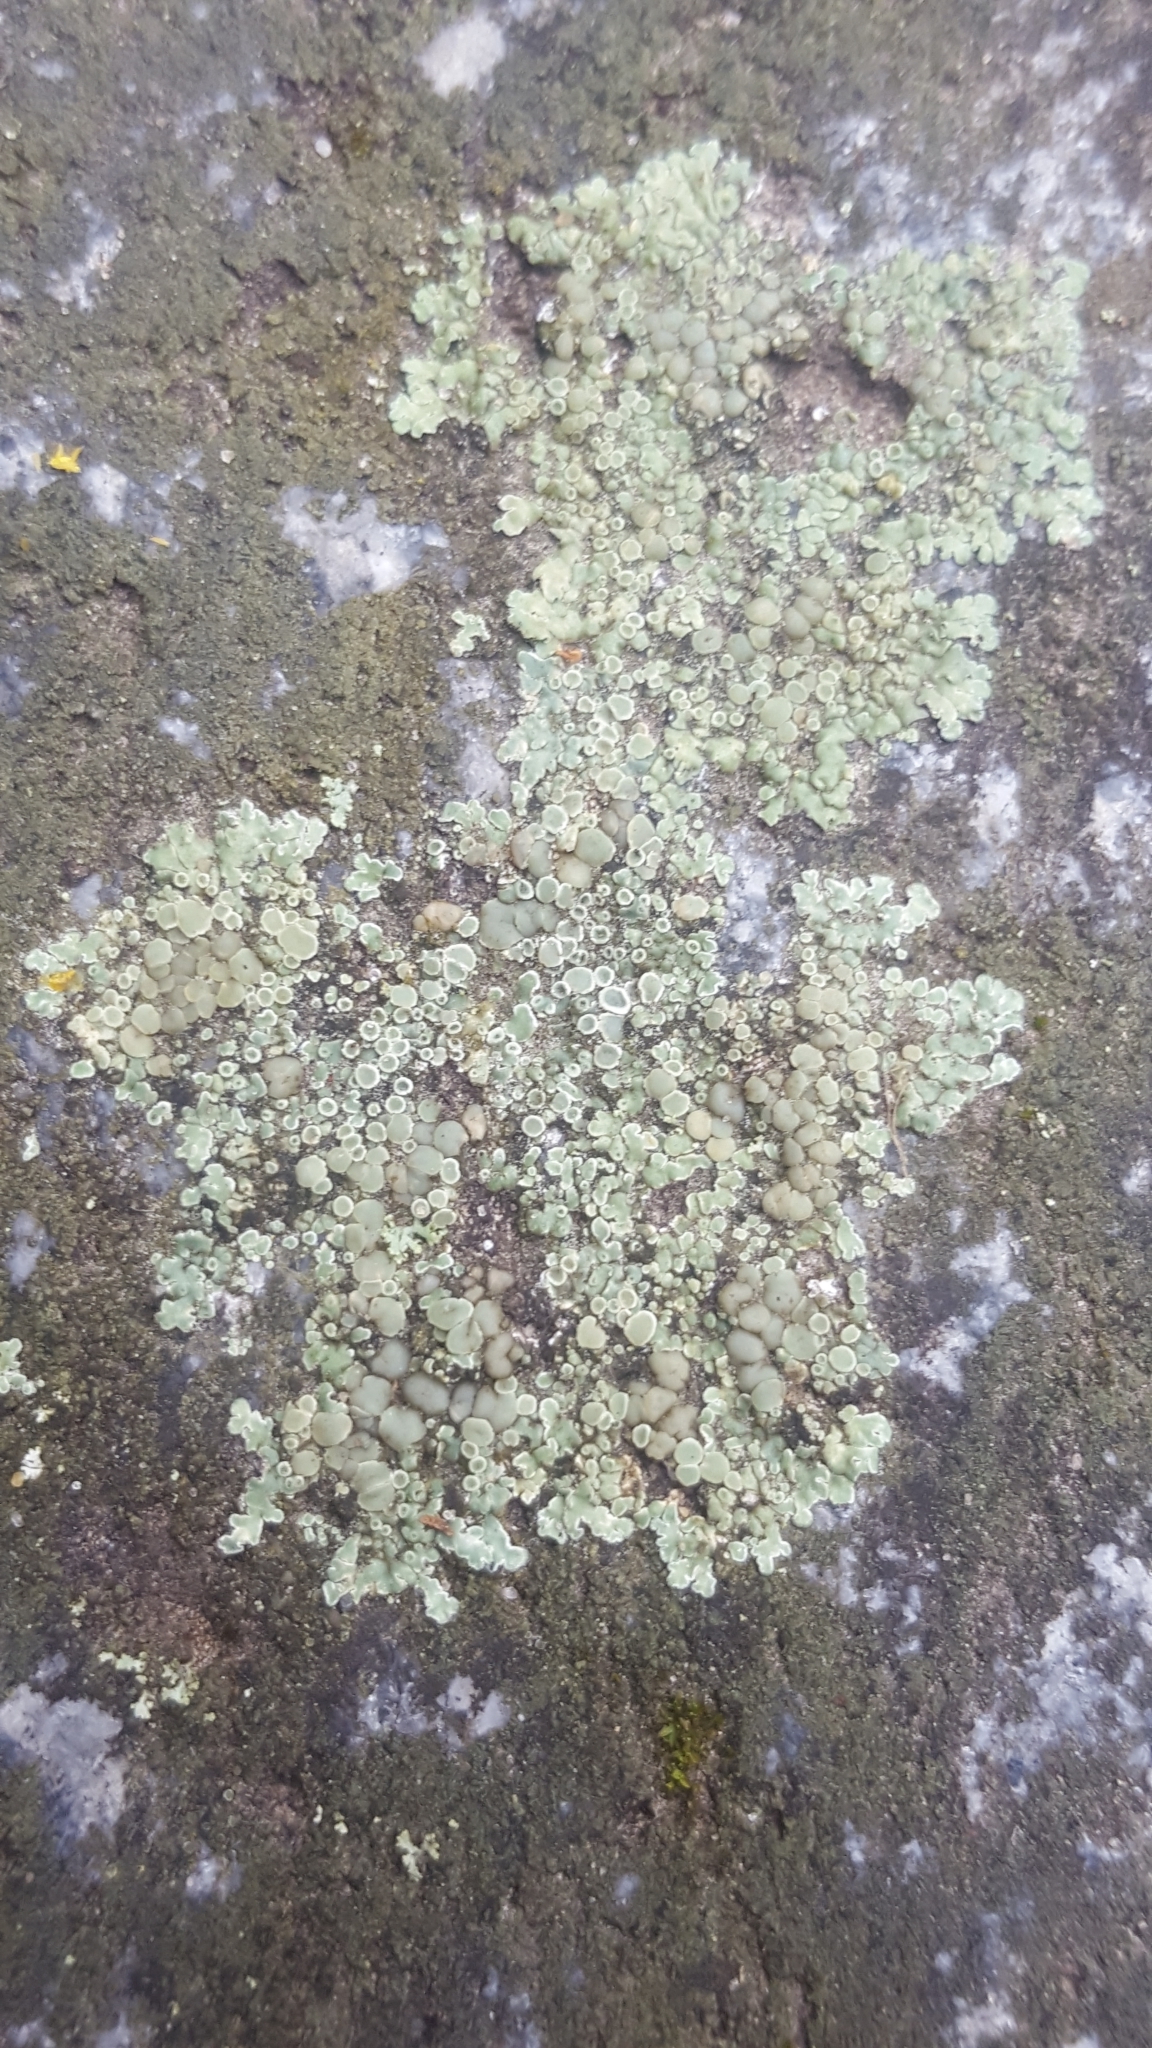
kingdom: Fungi
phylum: Ascomycota
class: Lecanoromycetes
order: Lecanorales
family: Lecanoraceae
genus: Protoparmeliopsis
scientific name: Protoparmeliopsis muralis
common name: Stonewall rim lichen
